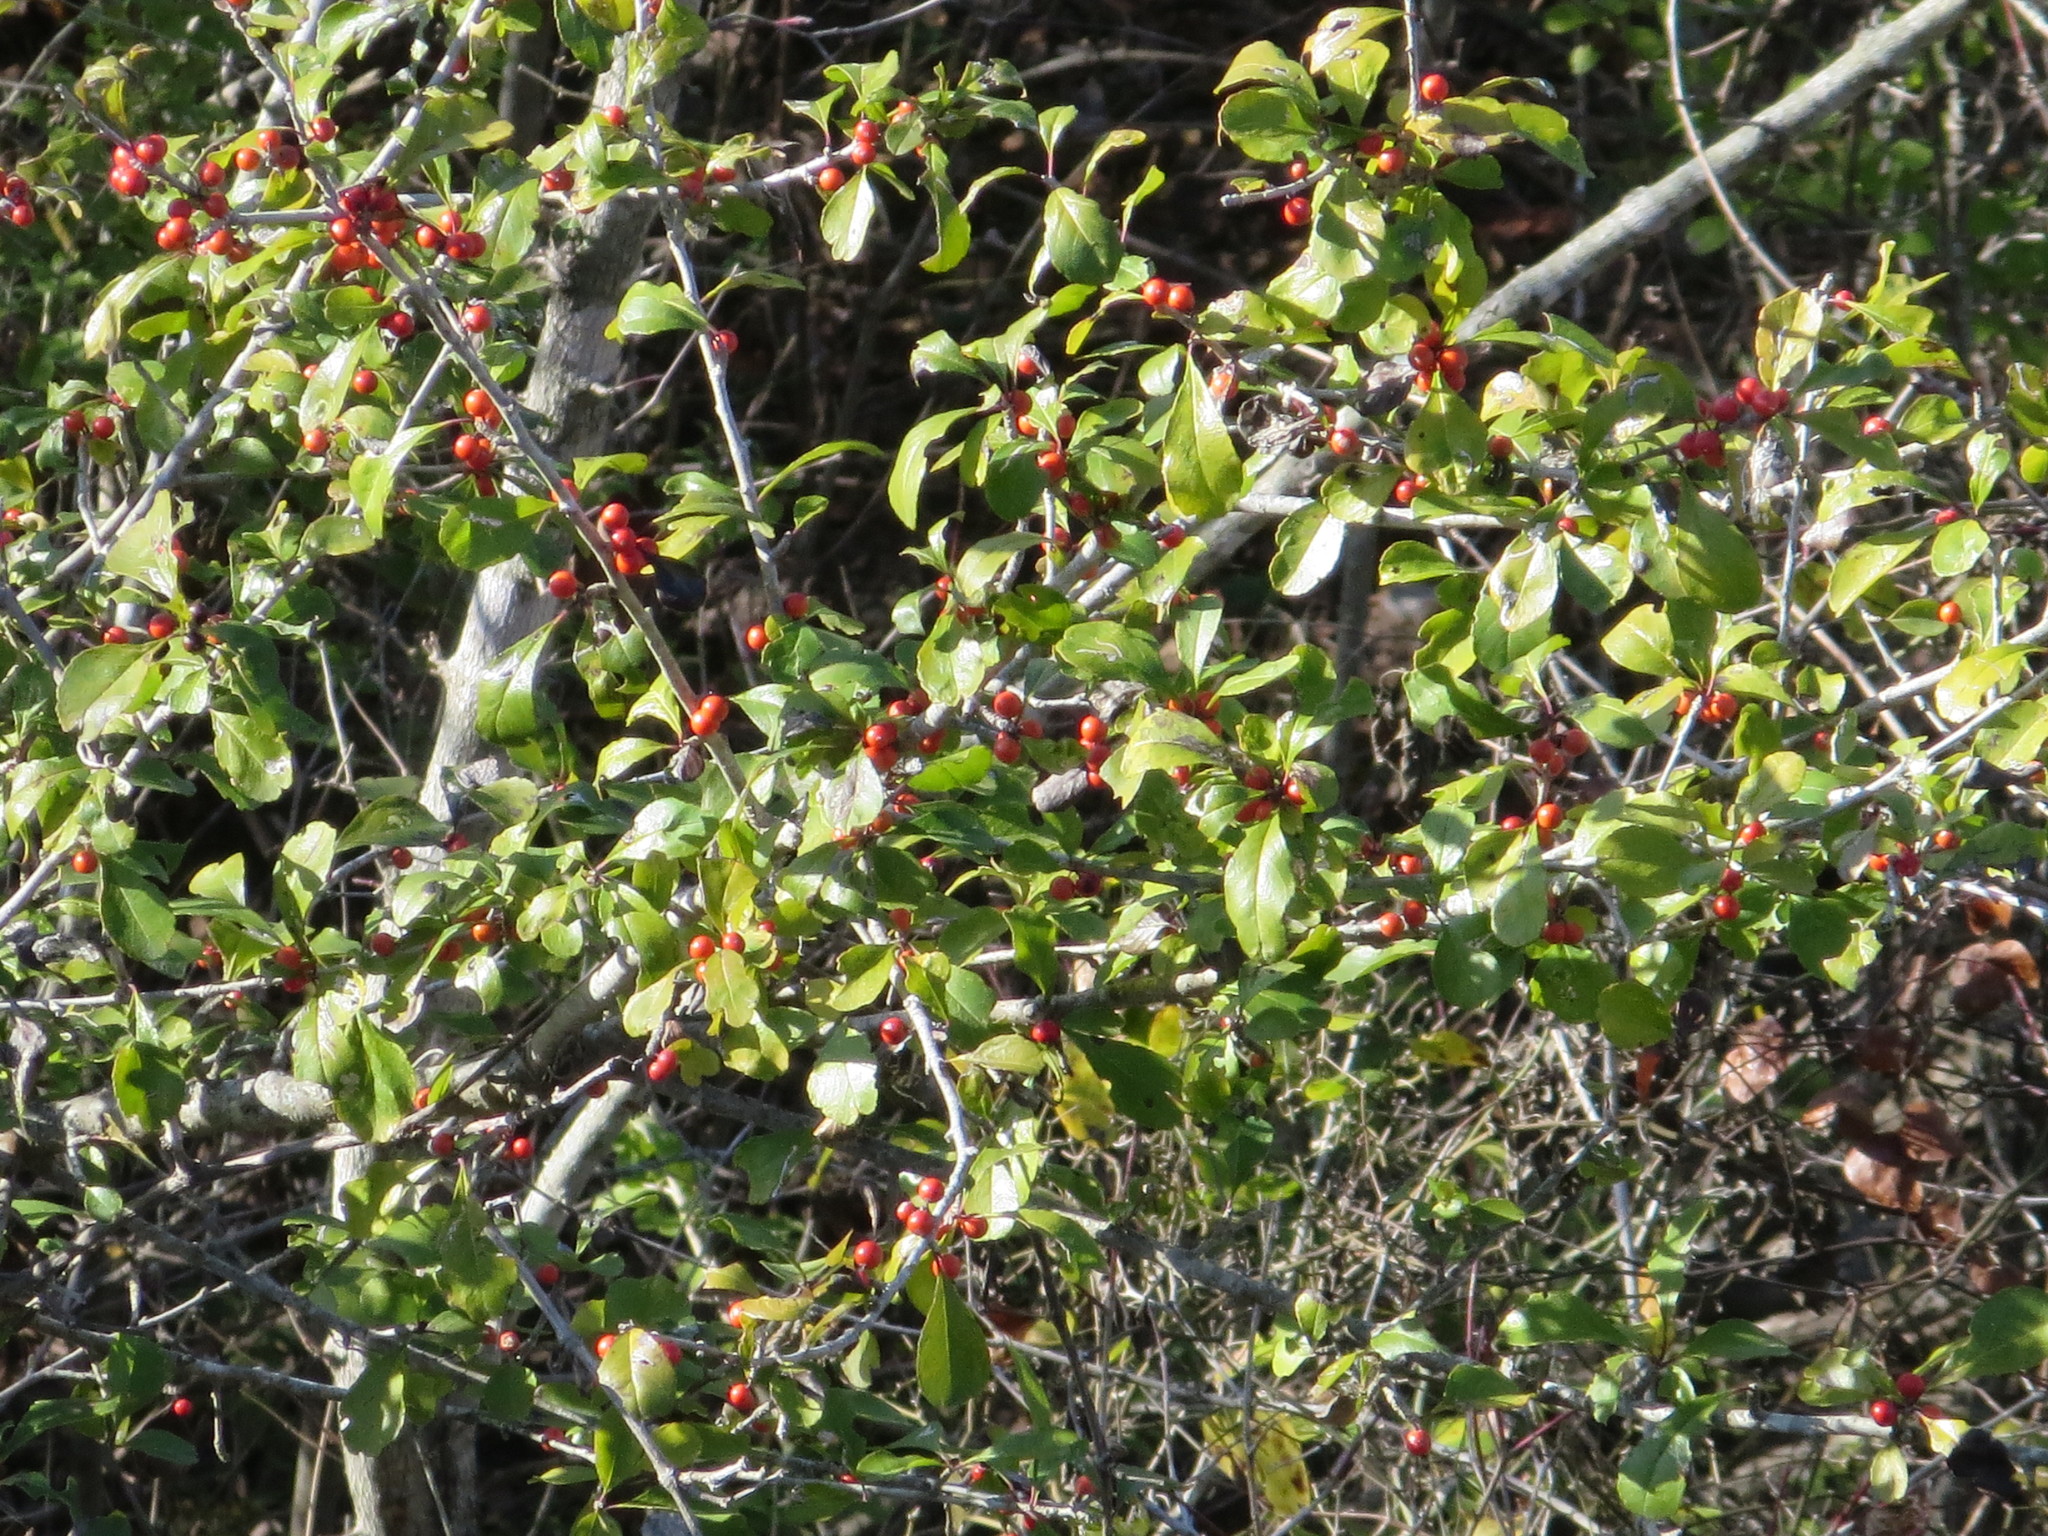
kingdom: Plantae
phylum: Tracheophyta
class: Magnoliopsida
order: Aquifoliales
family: Aquifoliaceae
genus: Ilex
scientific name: Ilex decidua
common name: Possum-haw
